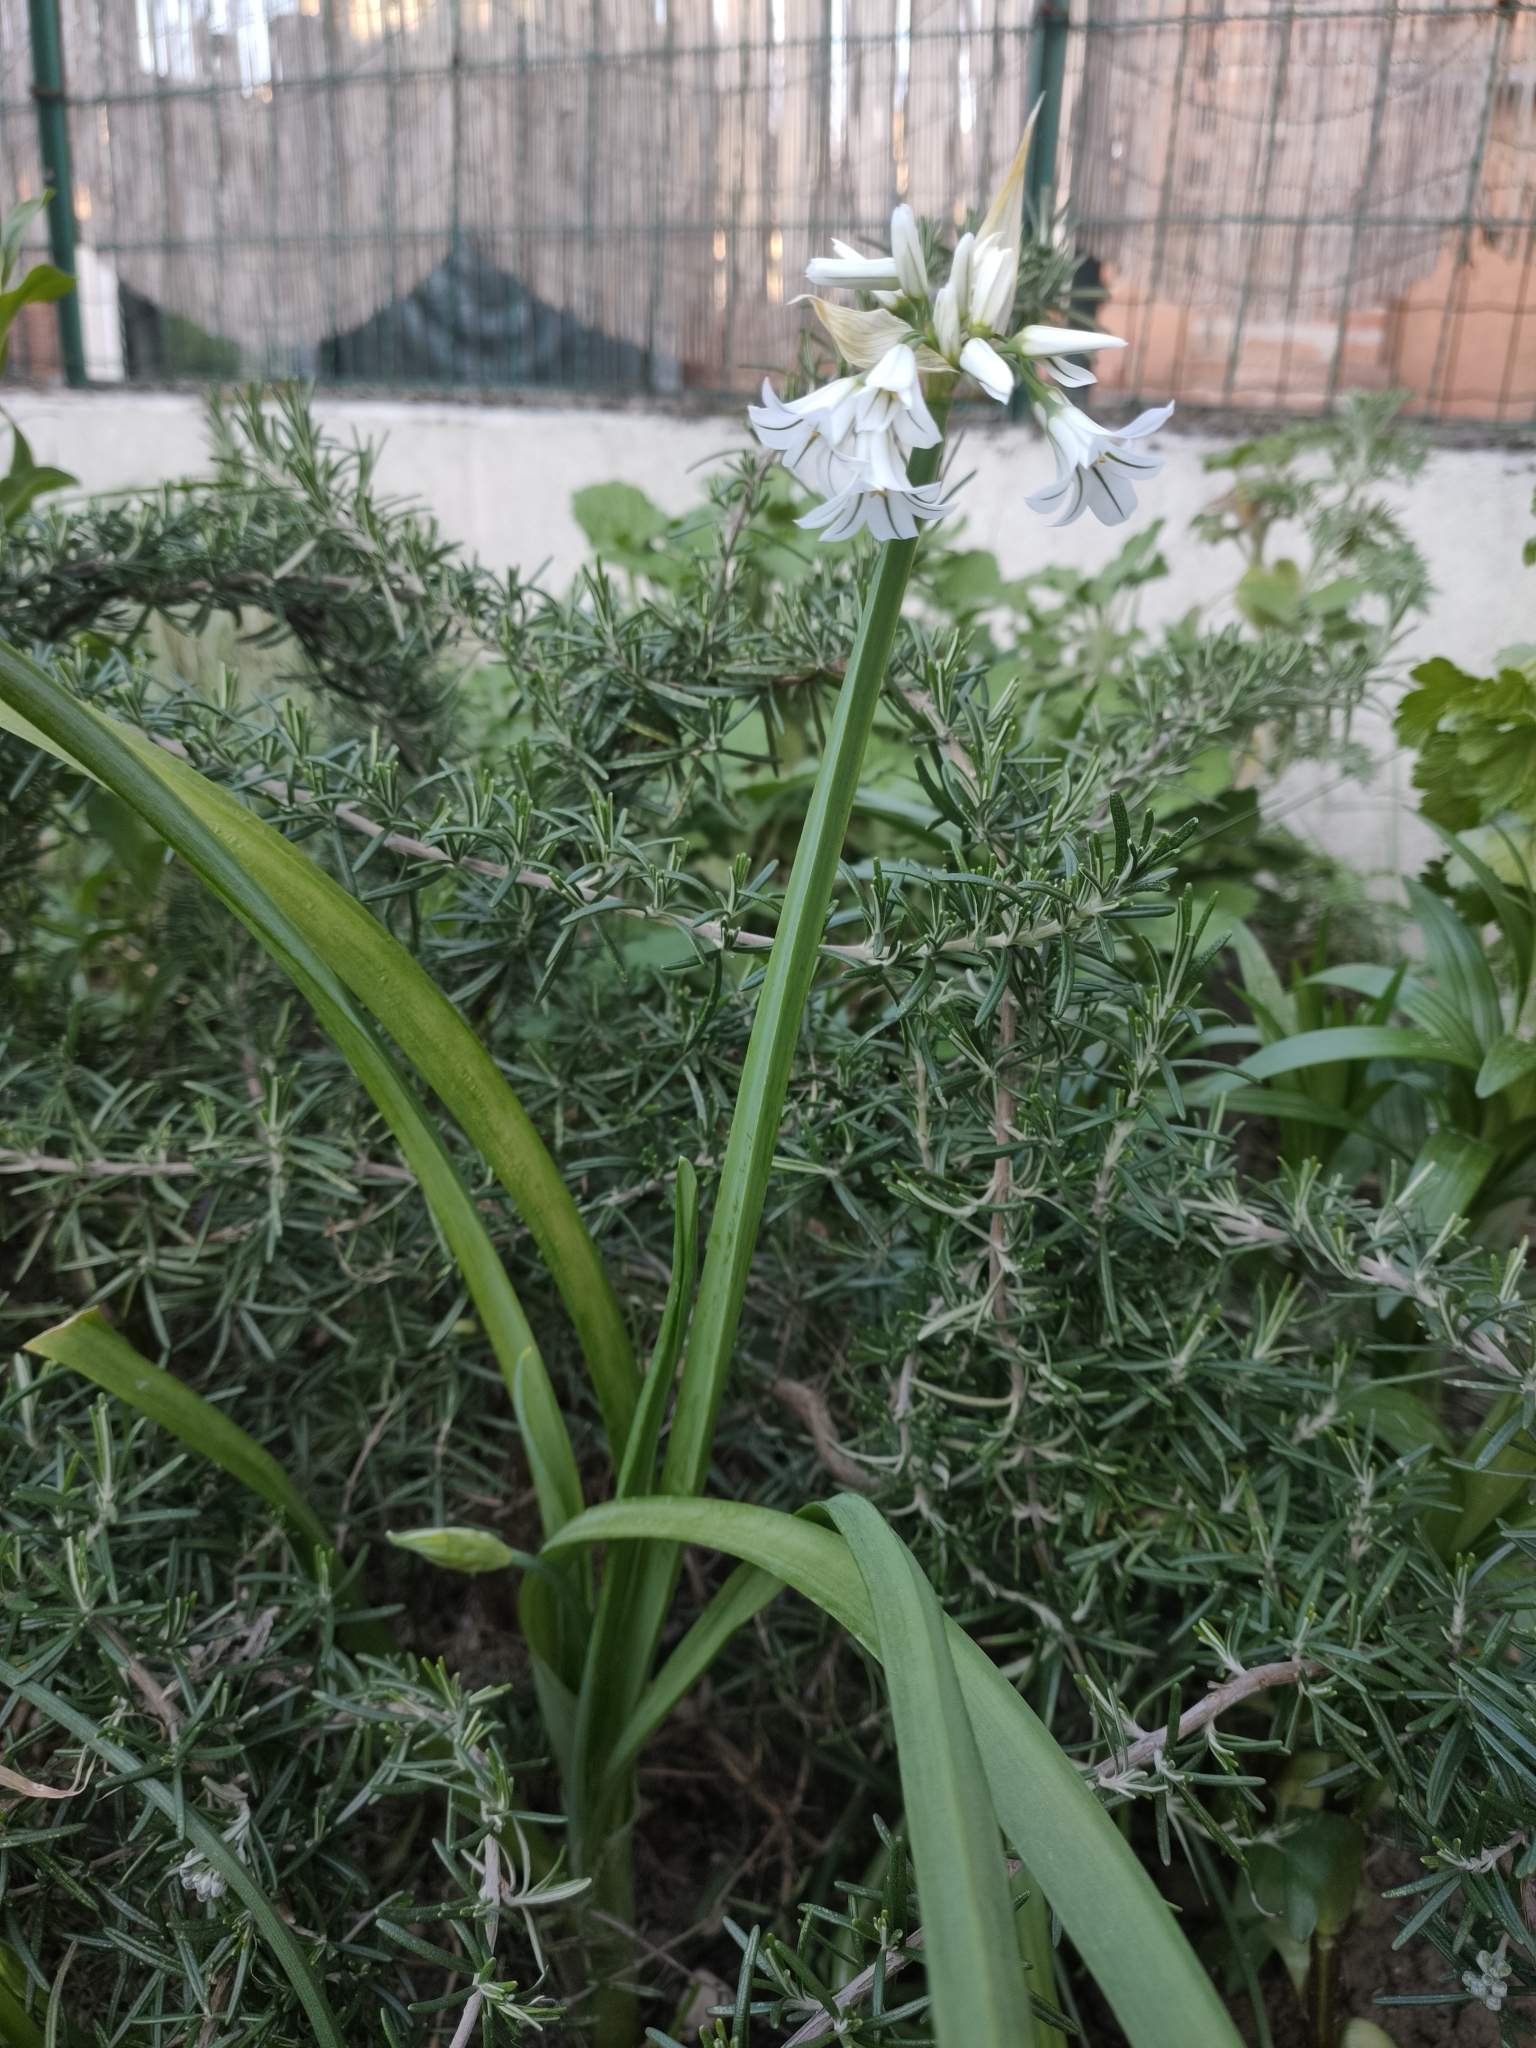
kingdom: Plantae
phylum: Tracheophyta
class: Liliopsida
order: Asparagales
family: Amaryllidaceae
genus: Allium
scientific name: Allium triquetrum
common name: Three-cornered garlic
